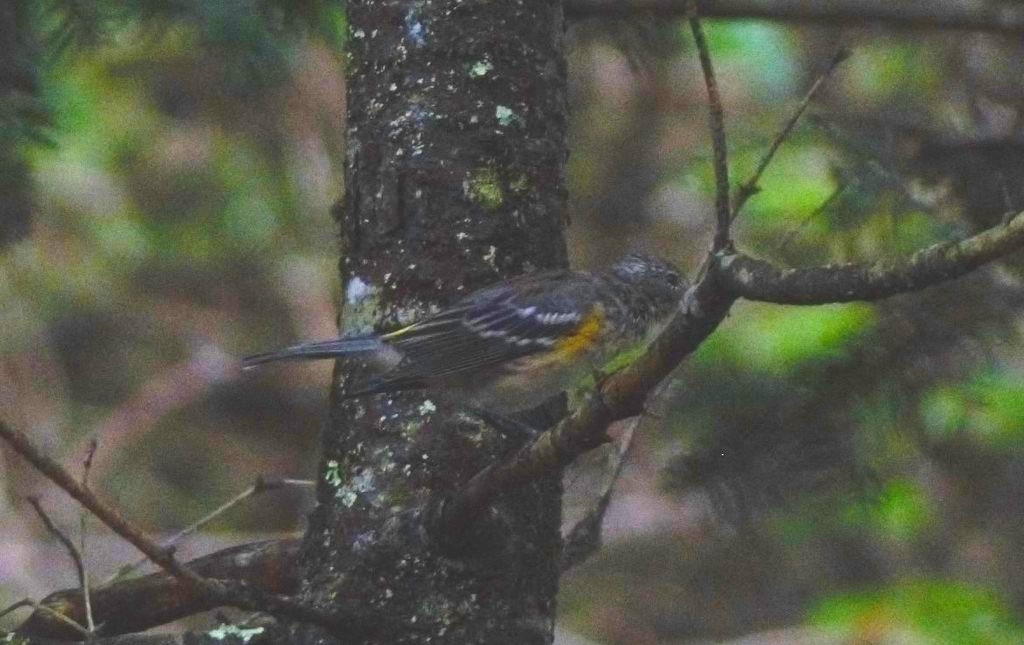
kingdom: Animalia
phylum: Chordata
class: Aves
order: Passeriformes
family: Parulidae
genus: Setophaga
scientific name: Setophaga coronata
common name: Myrtle warbler
